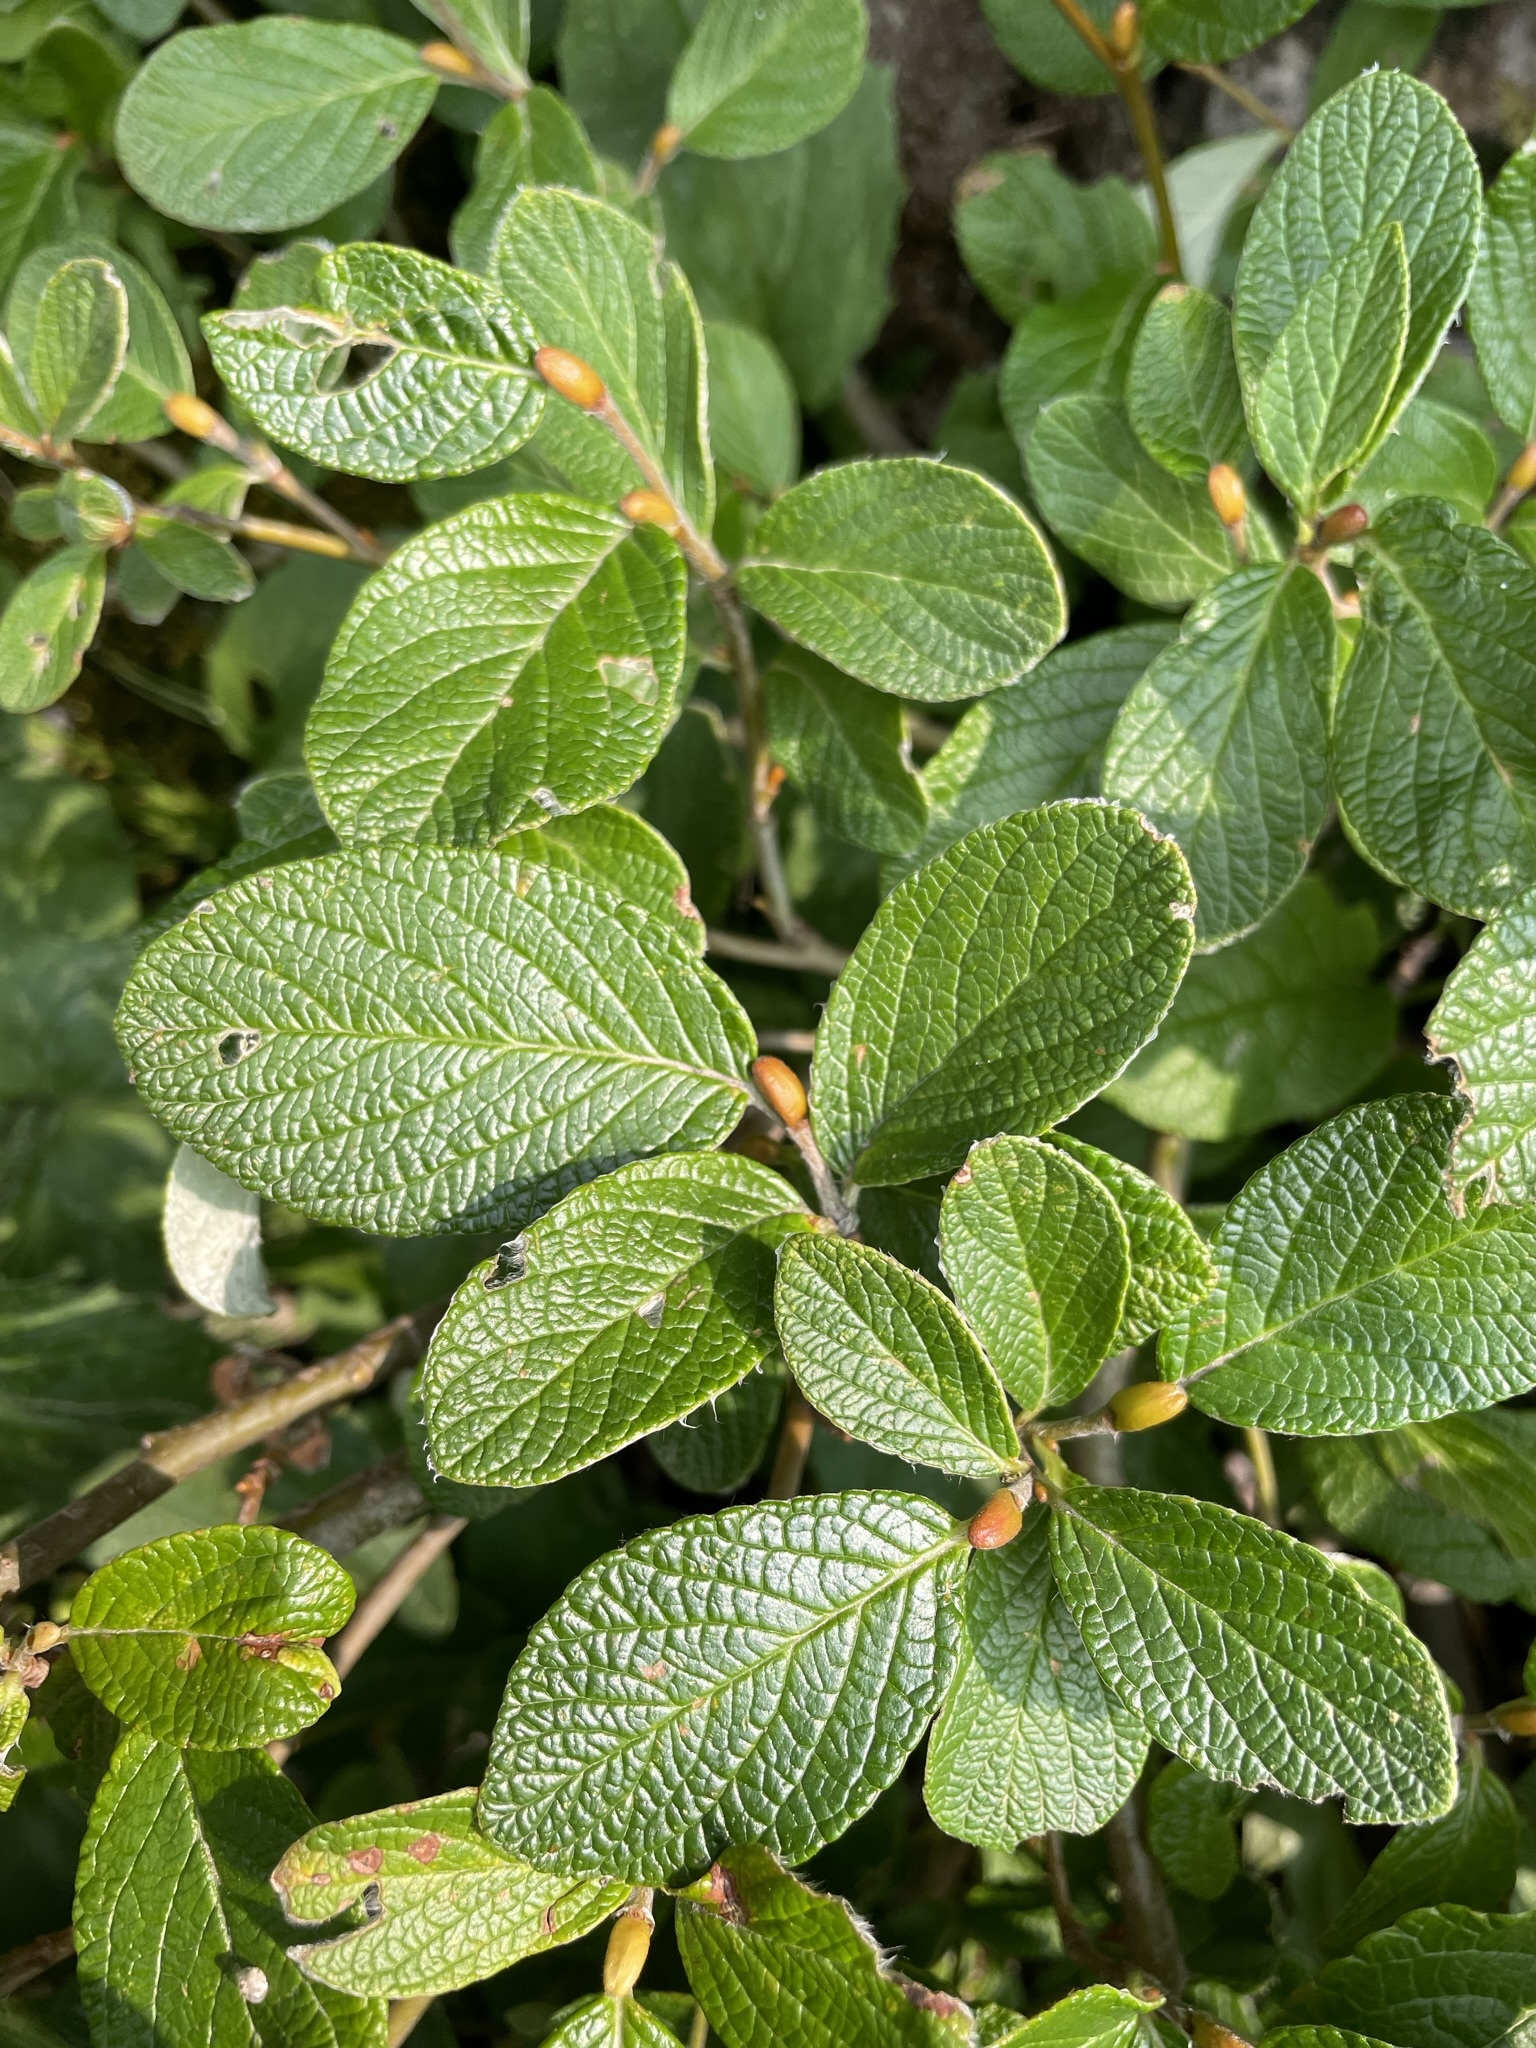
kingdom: Plantae
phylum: Tracheophyta
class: Magnoliopsida
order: Malpighiales
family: Salicaceae
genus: Salix
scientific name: Salix vestita
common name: Hairy willow
